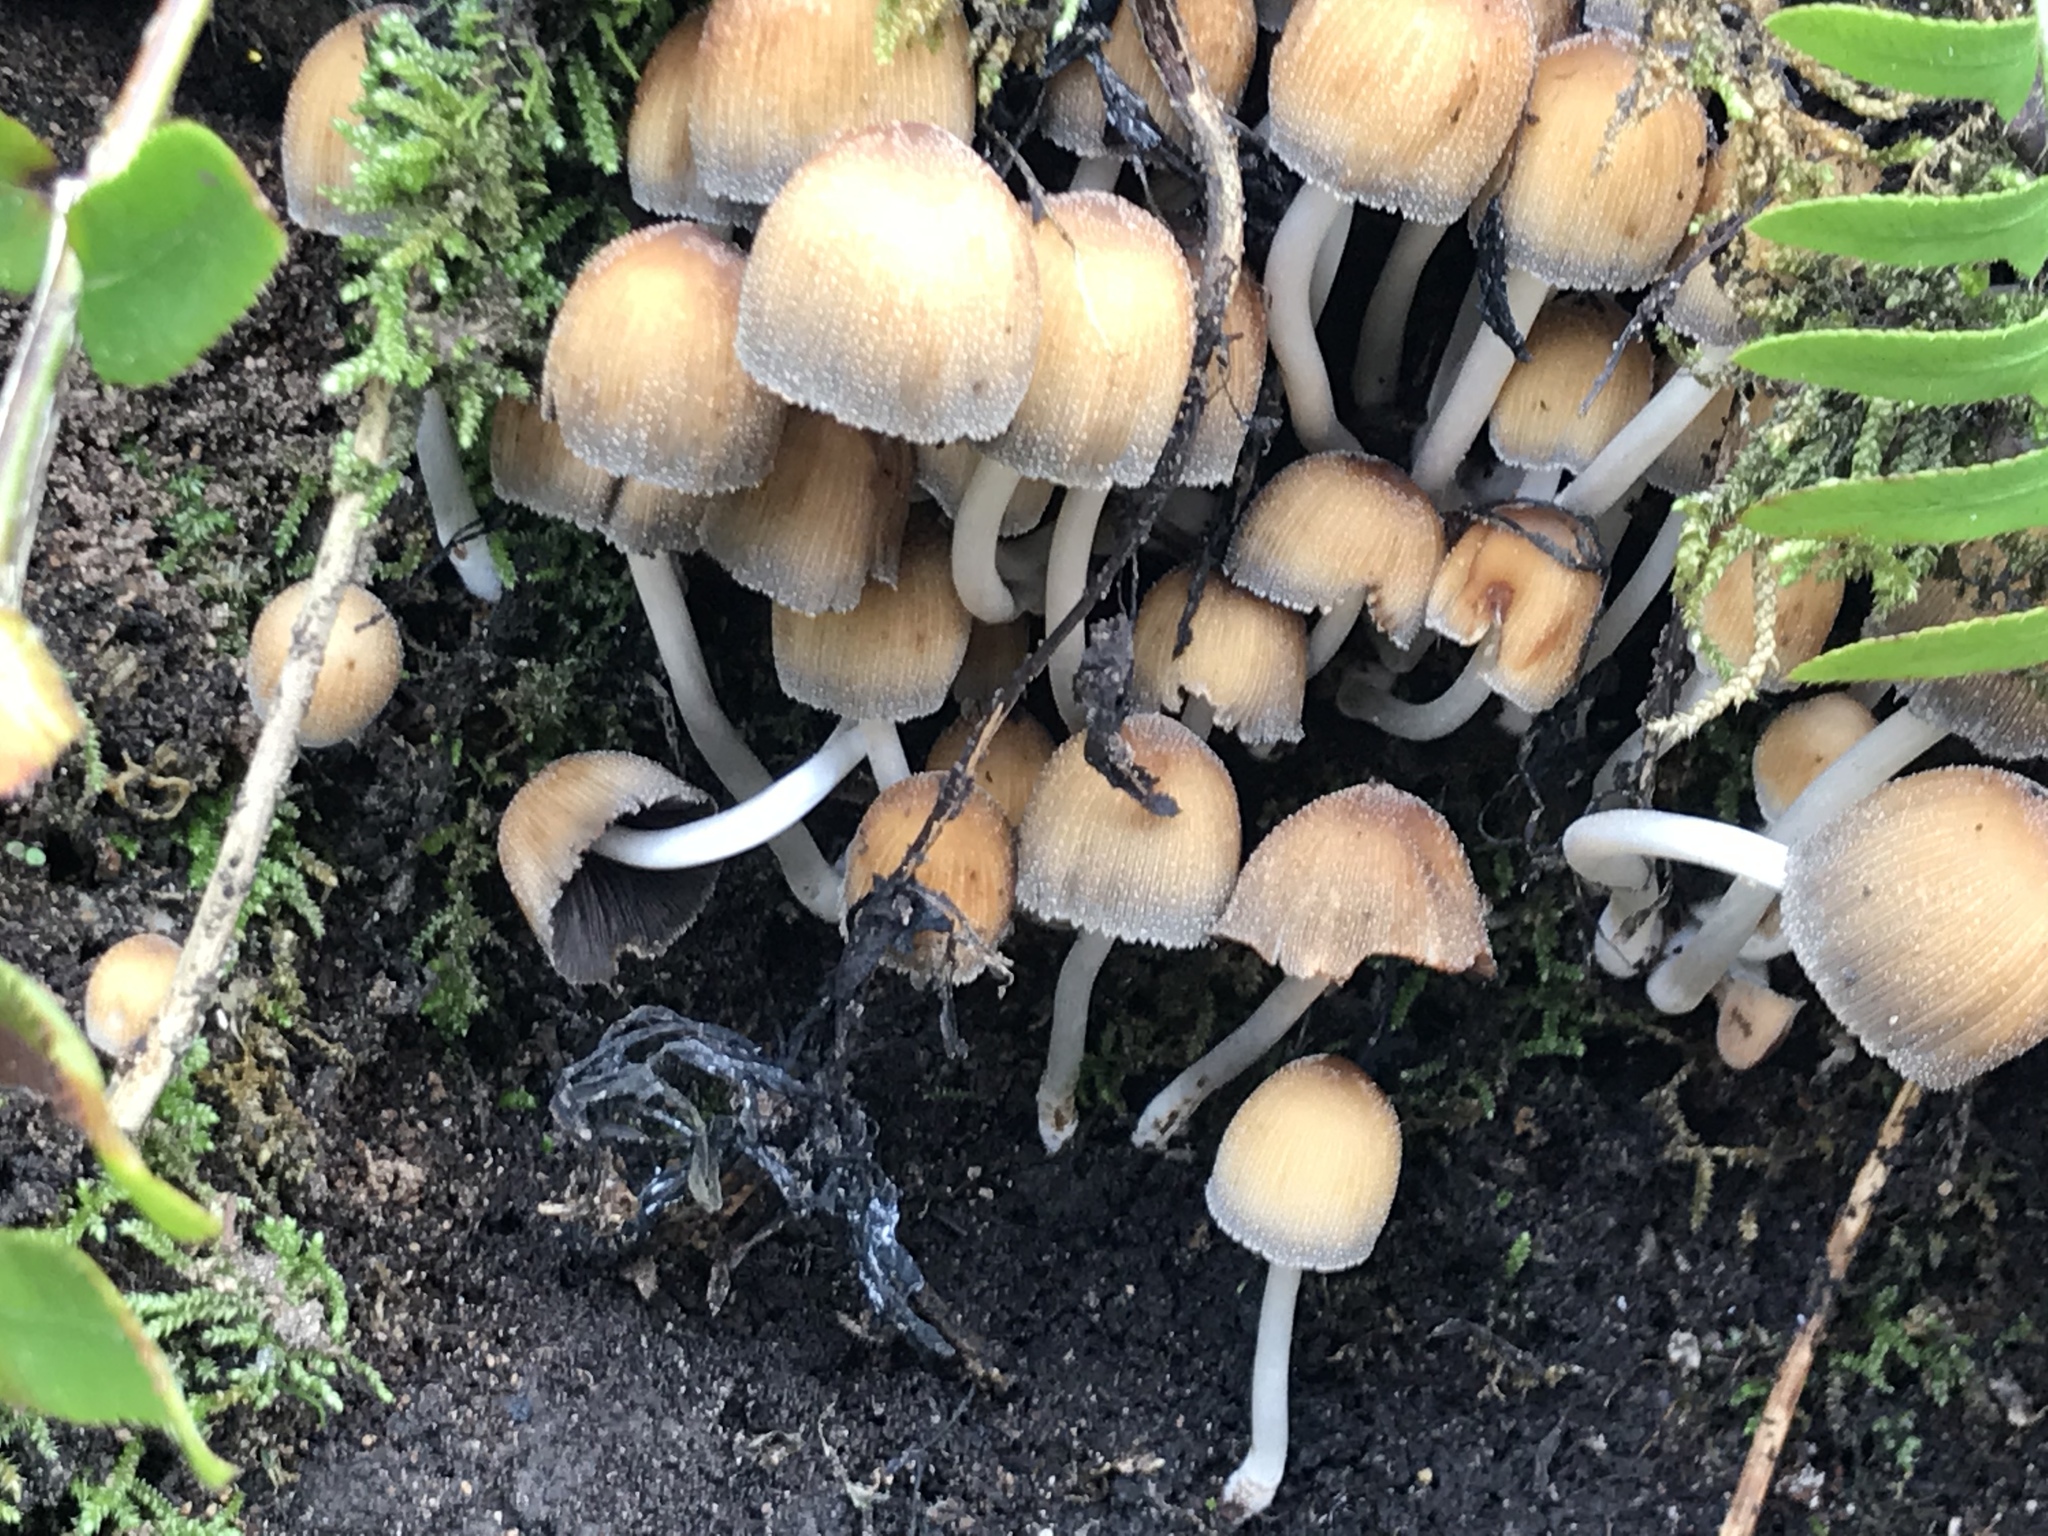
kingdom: Fungi
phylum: Basidiomycota
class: Agaricomycetes
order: Agaricales
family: Psathyrellaceae
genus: Coprinellus
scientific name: Coprinellus micaceus
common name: Glistening ink-cap
